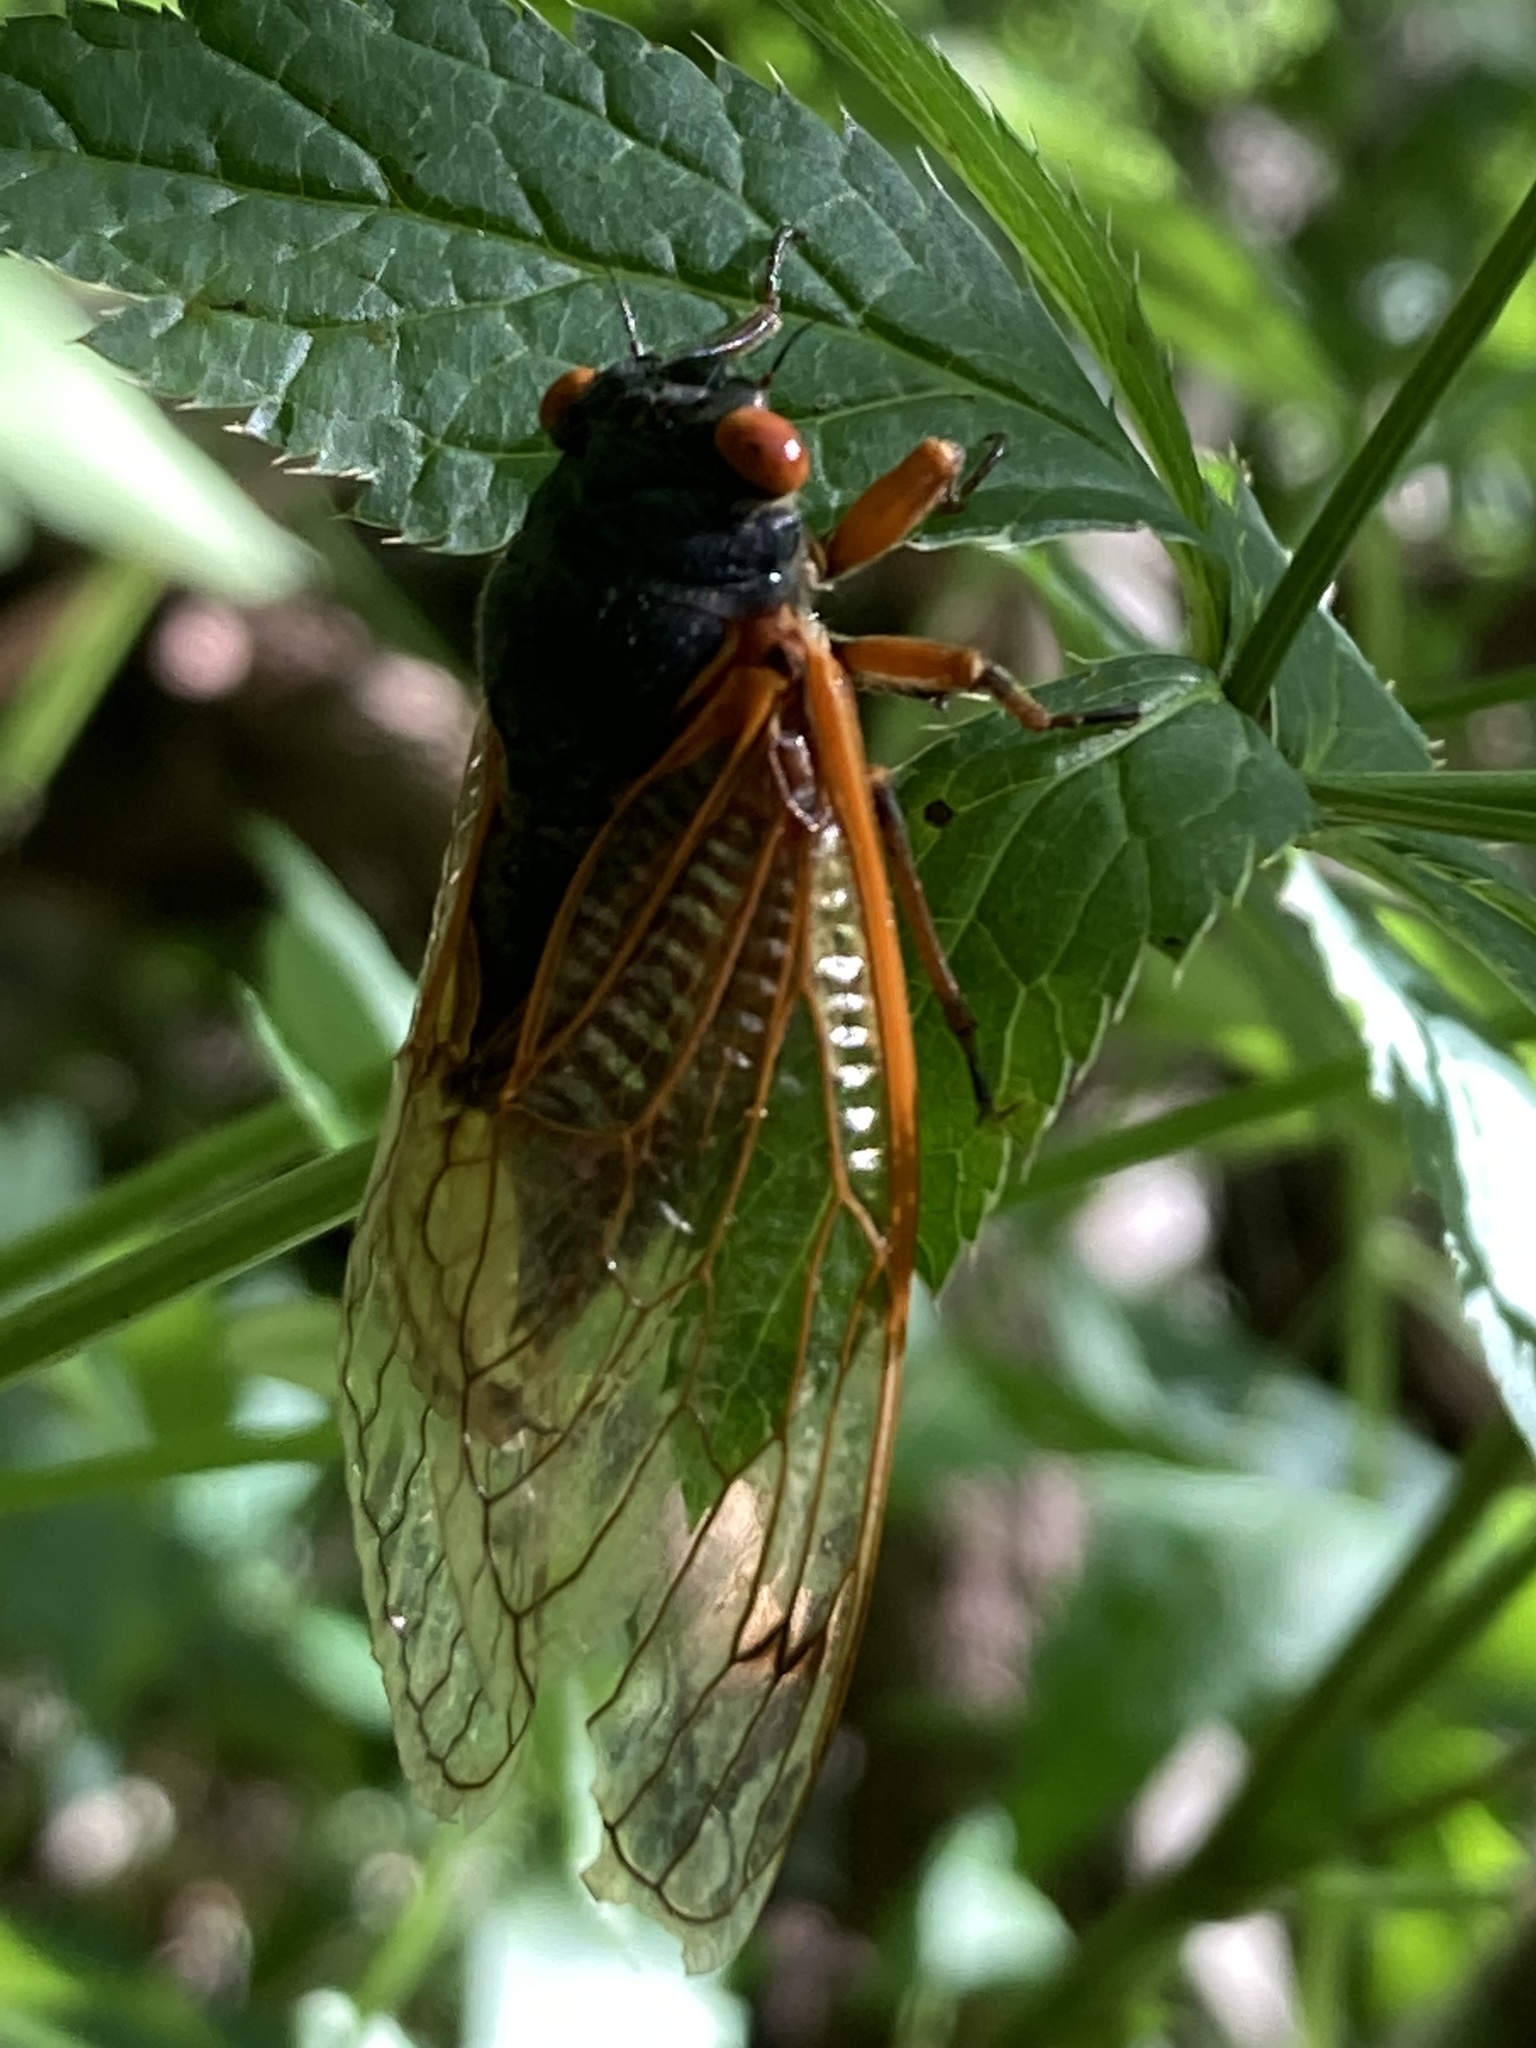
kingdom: Animalia
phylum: Arthropoda
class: Insecta
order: Hemiptera
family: Cicadidae
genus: Magicicada
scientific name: Magicicada cassini
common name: Cassin's 17-year cicada
